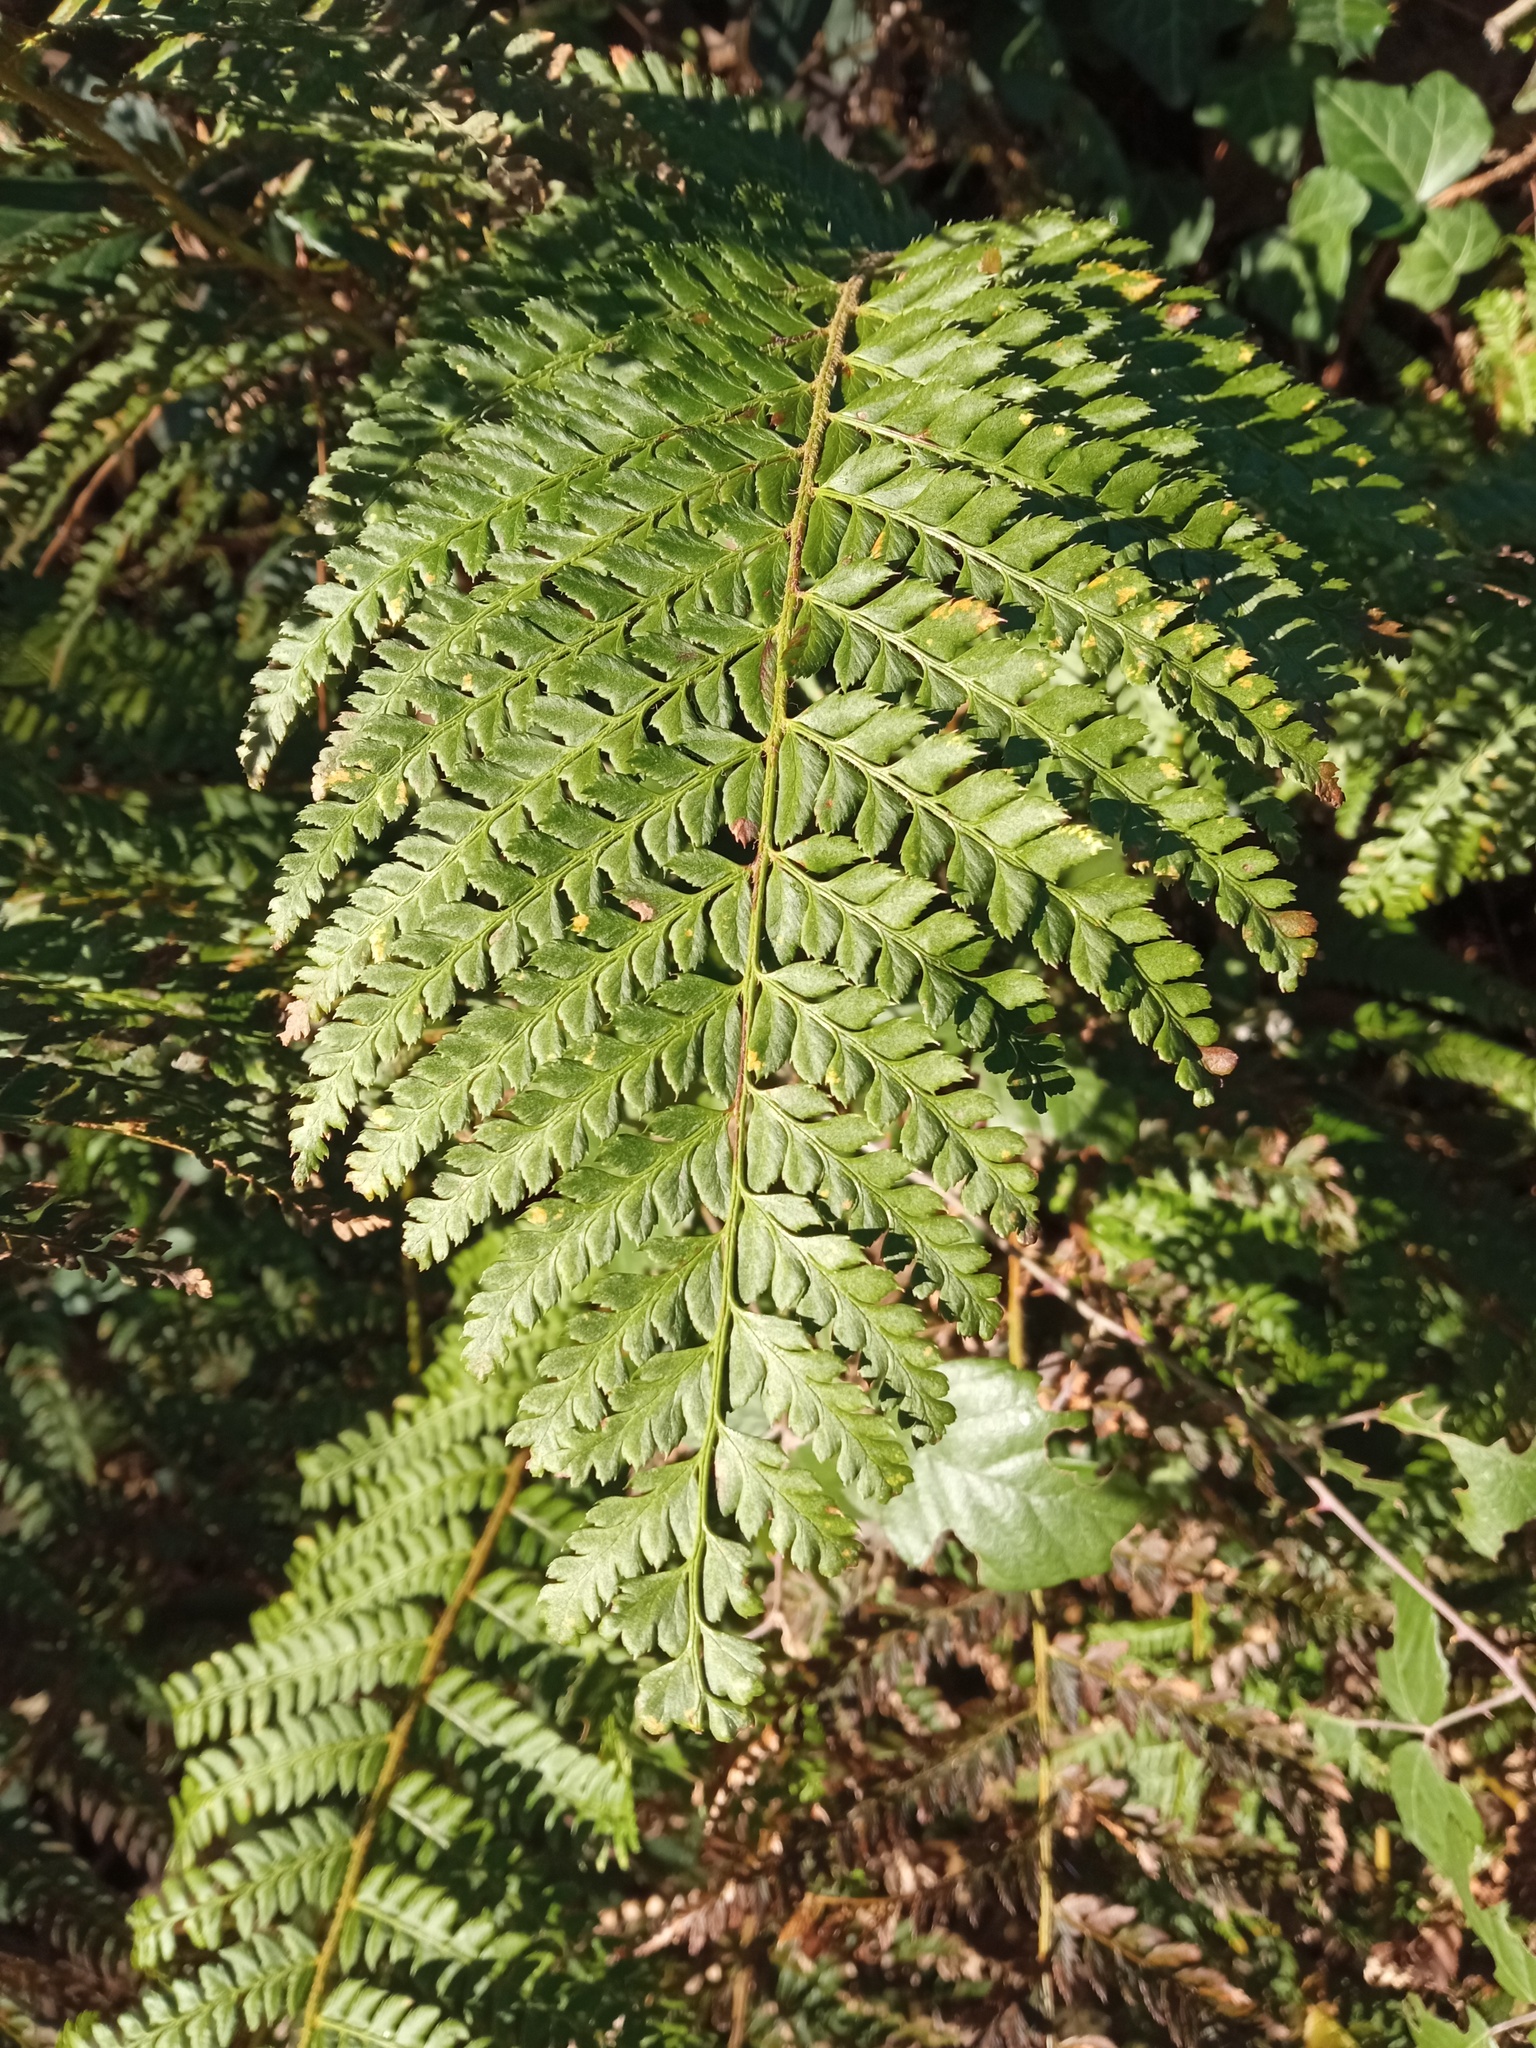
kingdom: Plantae
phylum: Tracheophyta
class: Polypodiopsida
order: Polypodiales
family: Dryopteridaceae
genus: Polystichum
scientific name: Polystichum aculeatum
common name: Hard shield-fern
